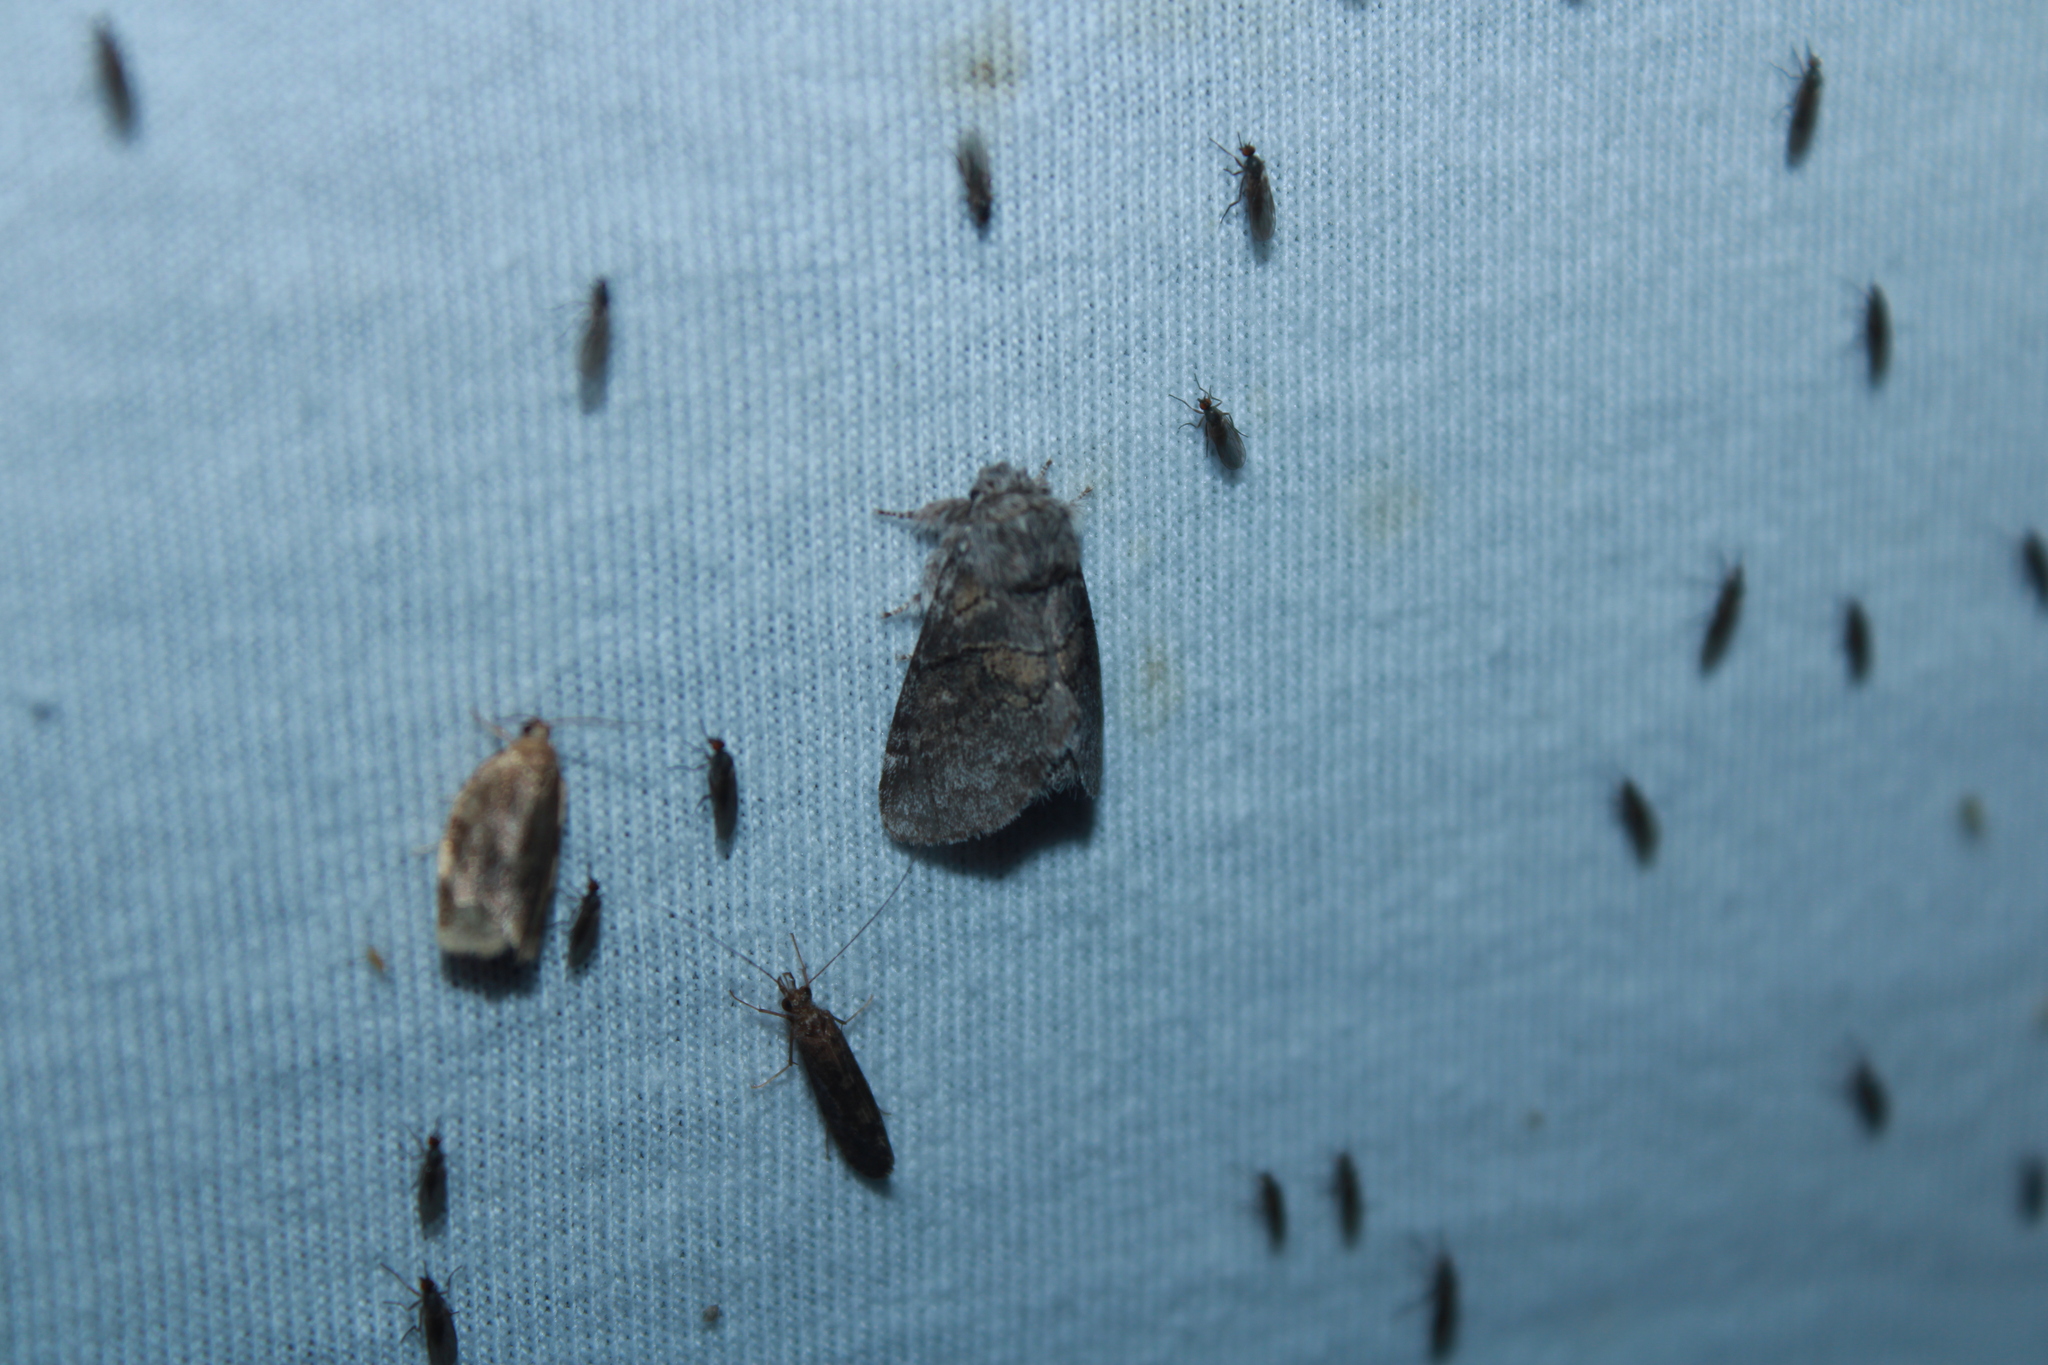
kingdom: Animalia
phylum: Arthropoda
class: Insecta
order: Lepidoptera
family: Notodontidae
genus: Gluphisia
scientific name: Gluphisia septentrionis
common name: Common gluphisia
